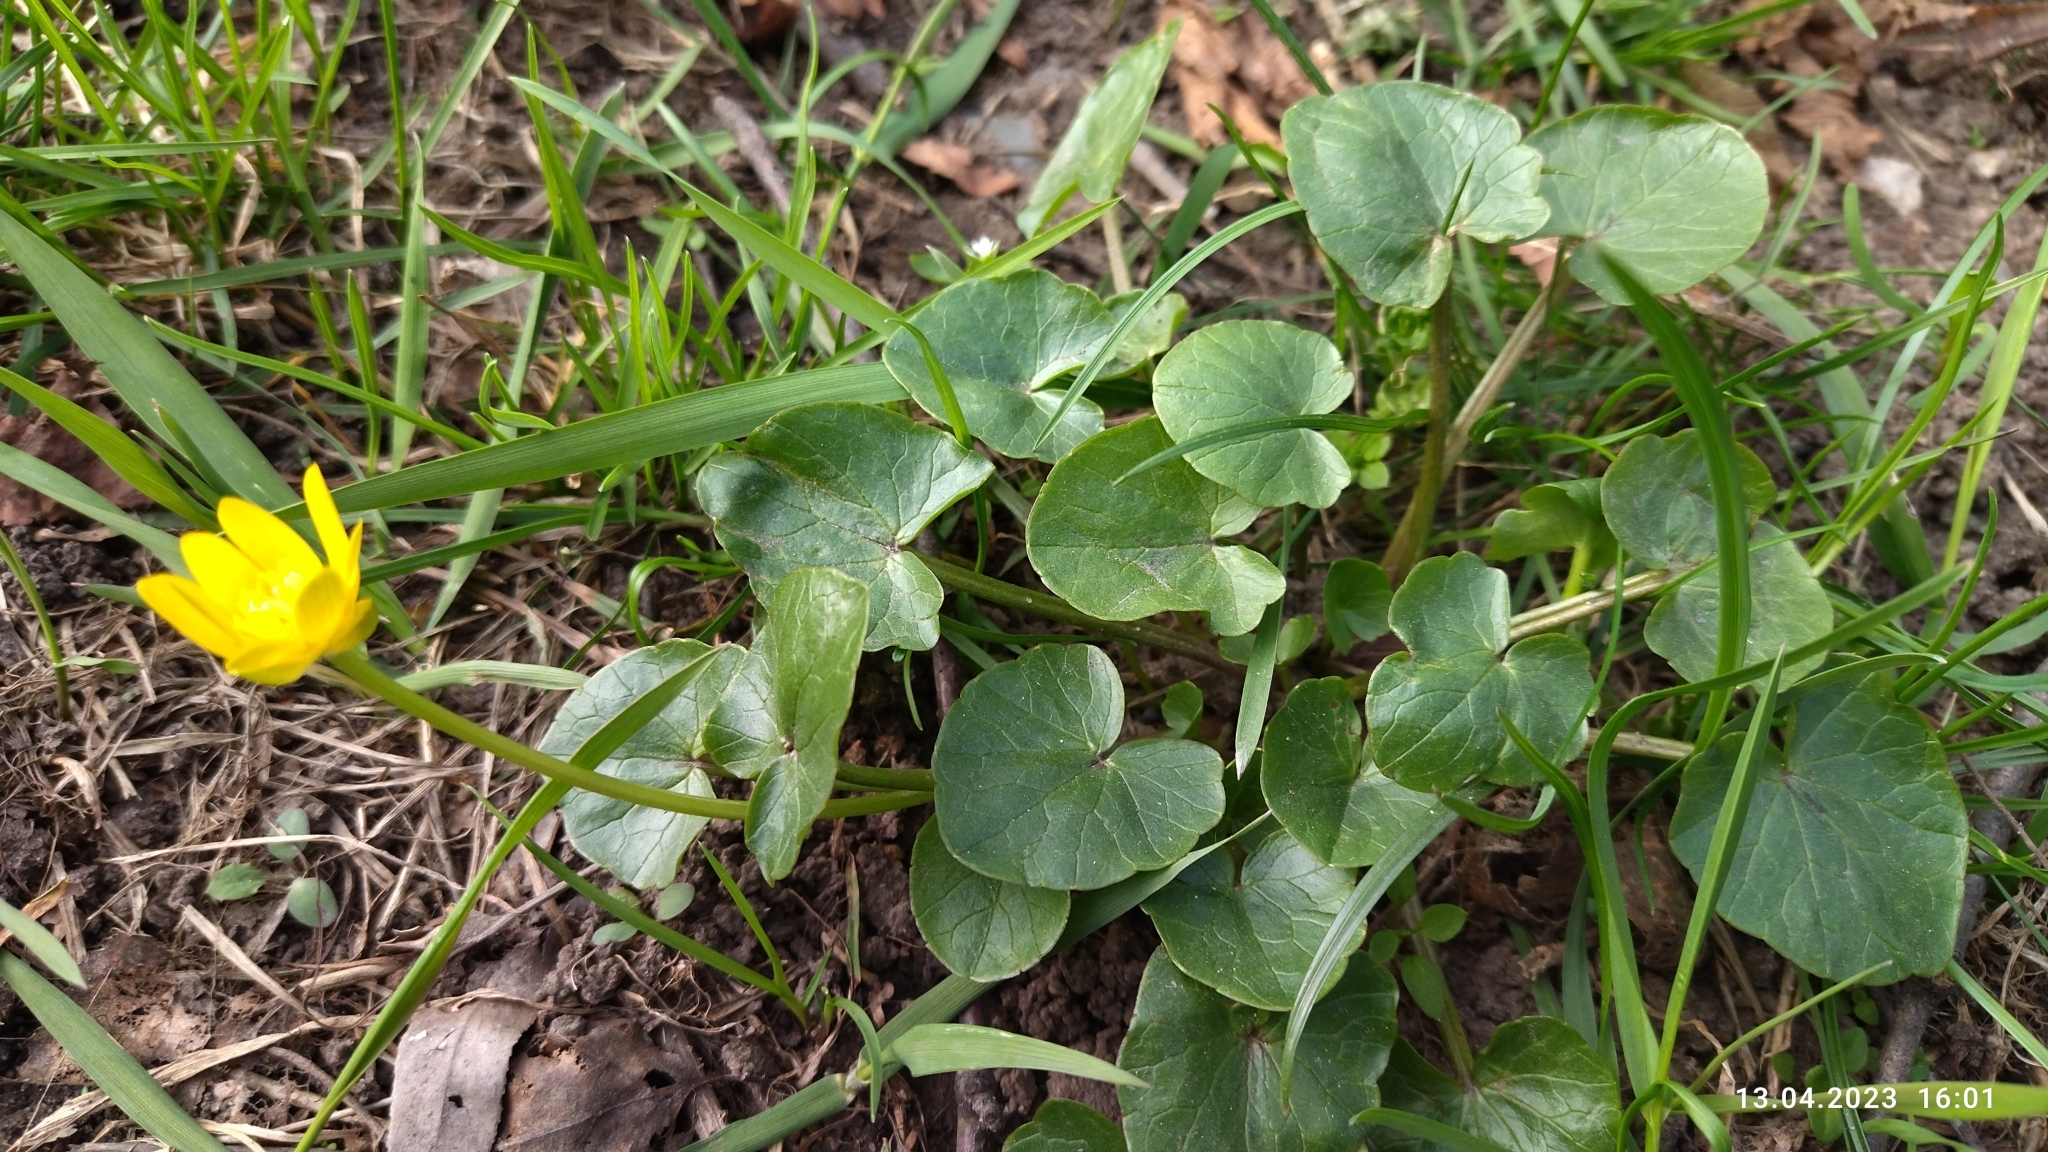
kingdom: Plantae
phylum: Tracheophyta
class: Magnoliopsida
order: Ranunculales
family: Ranunculaceae
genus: Ficaria
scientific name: Ficaria verna
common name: Lesser celandine
